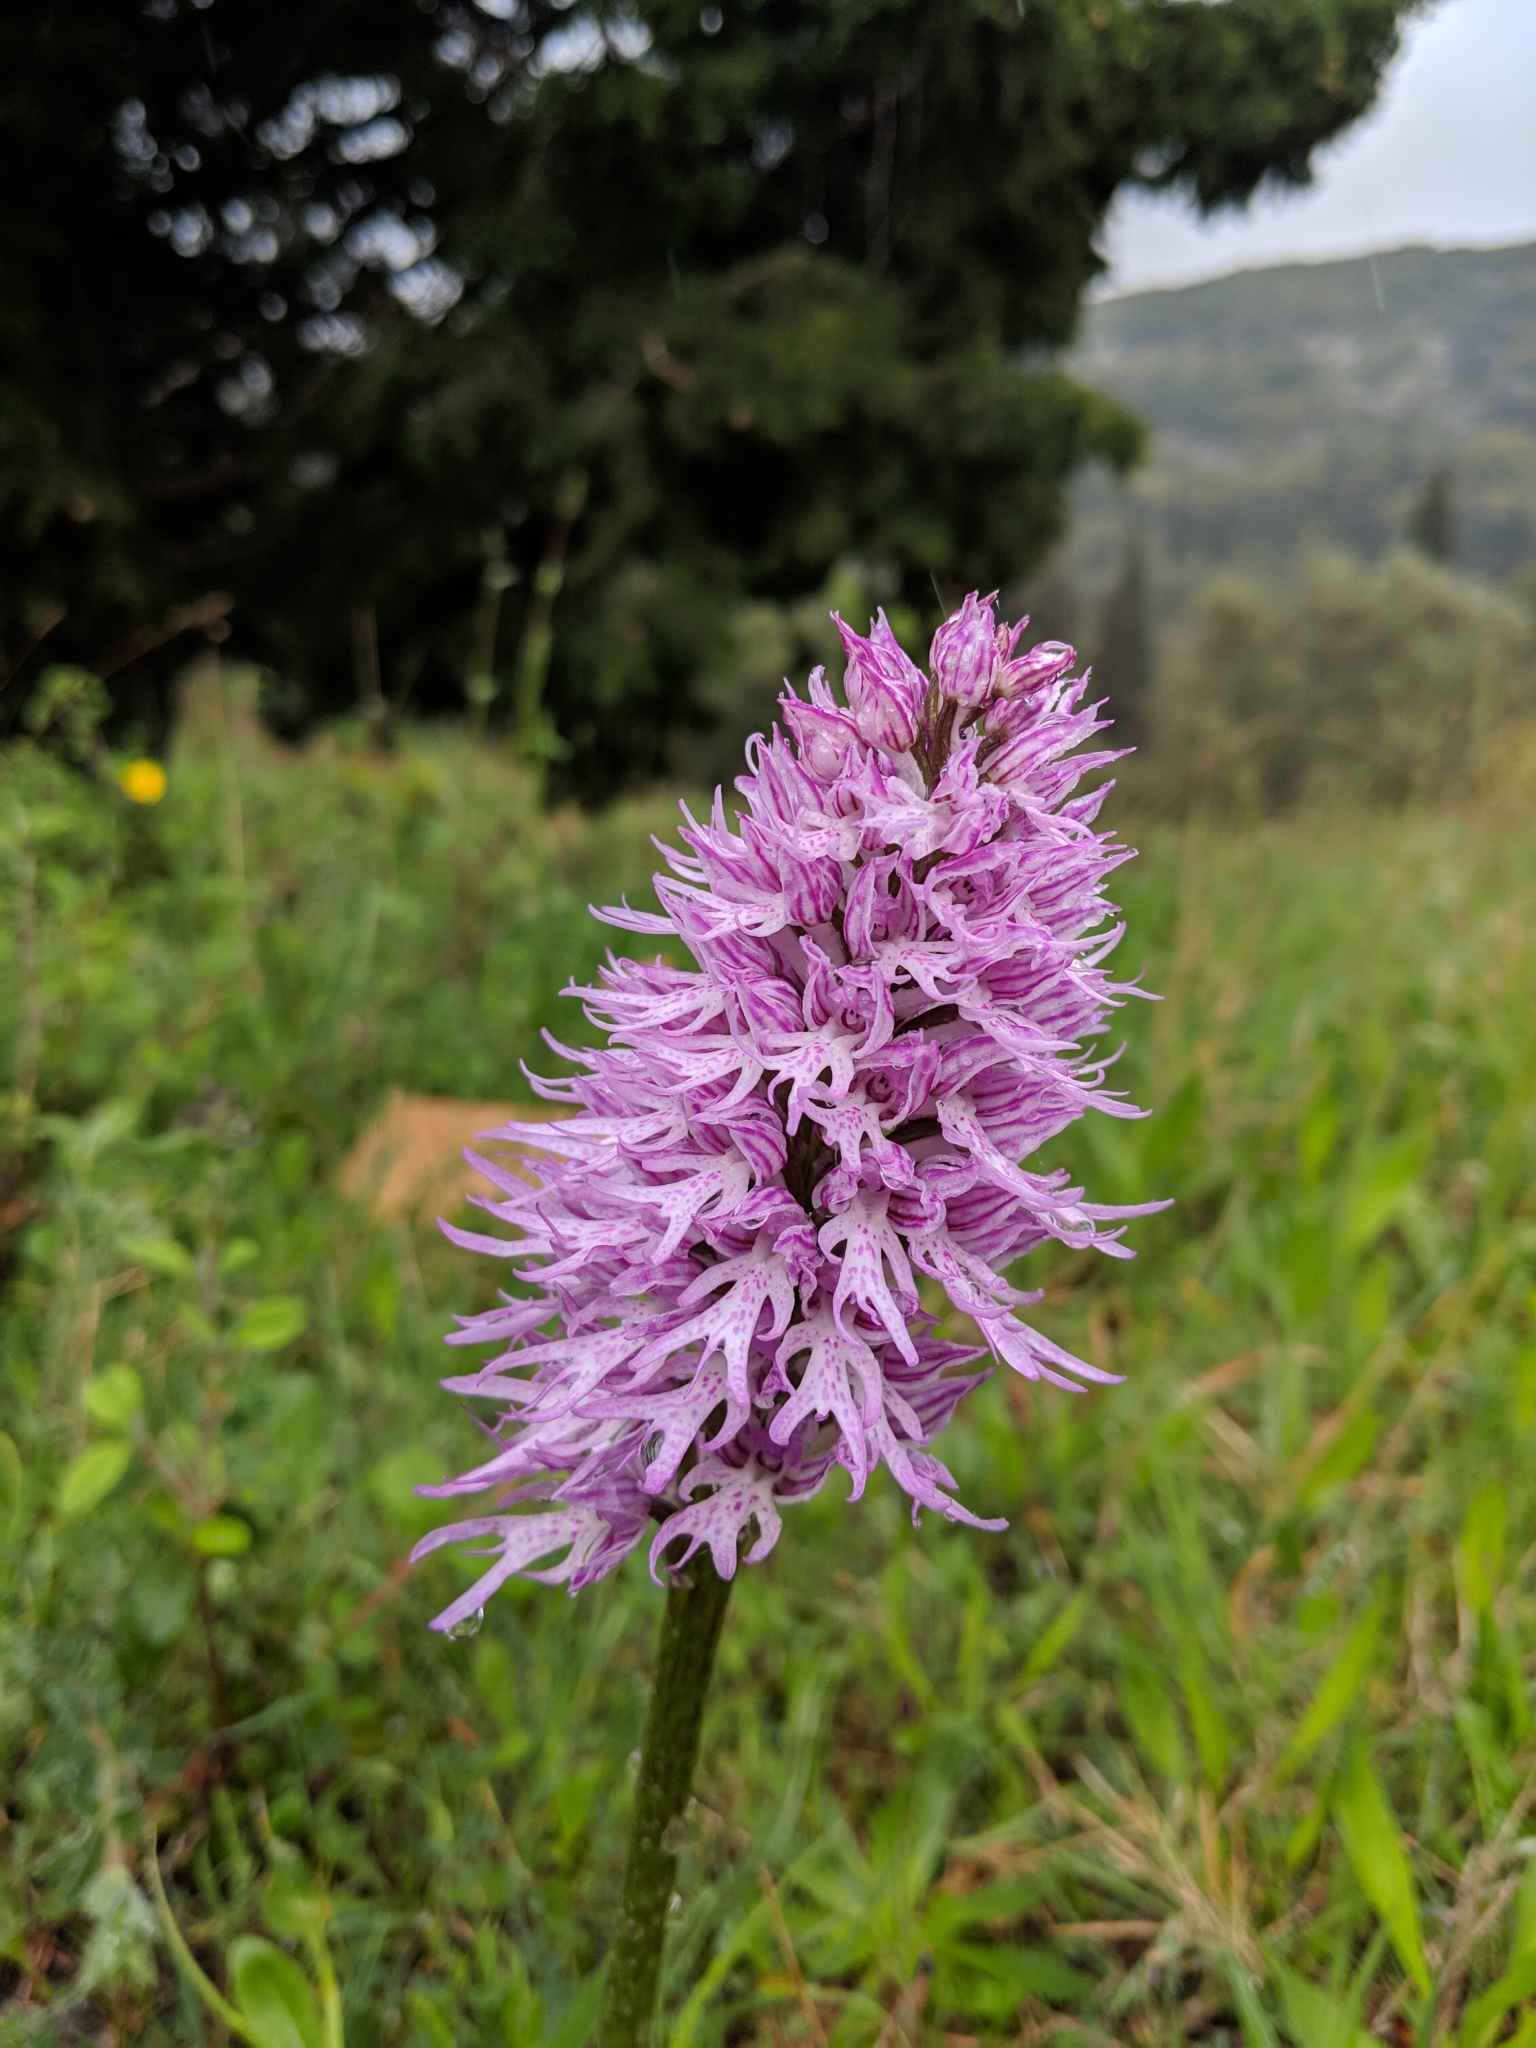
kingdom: Plantae
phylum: Tracheophyta
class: Liliopsida
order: Asparagales
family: Orchidaceae
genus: Orchis
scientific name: Orchis italica
